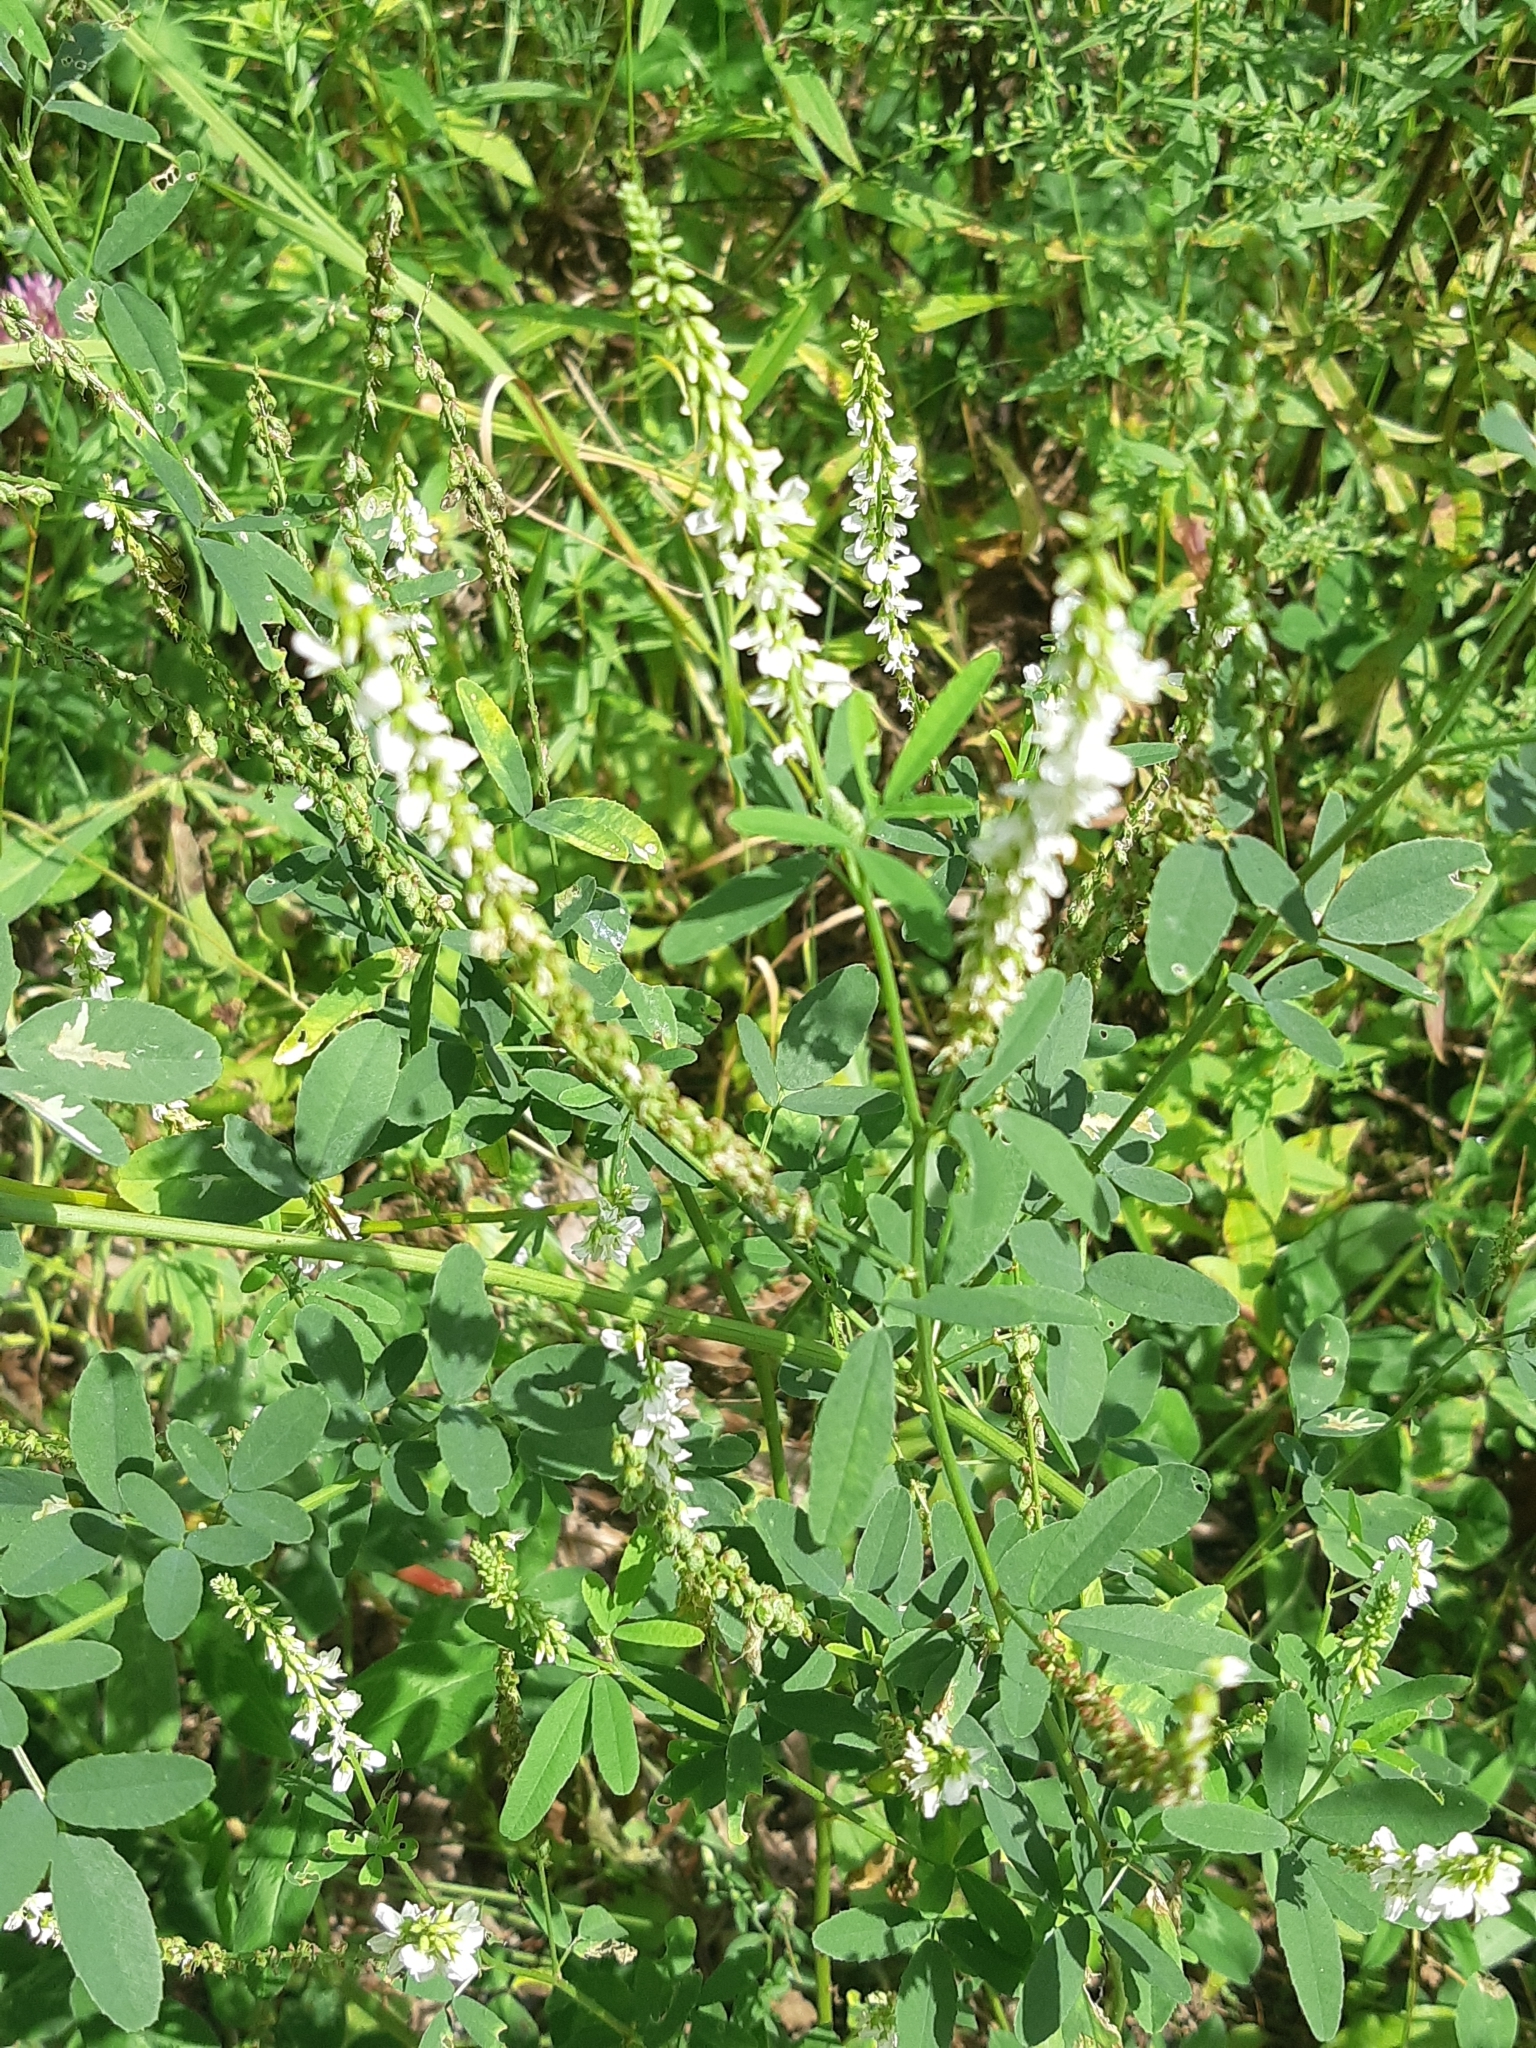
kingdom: Plantae
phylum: Tracheophyta
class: Magnoliopsida
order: Fabales
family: Fabaceae
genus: Melilotus
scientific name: Melilotus albus
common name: White melilot
